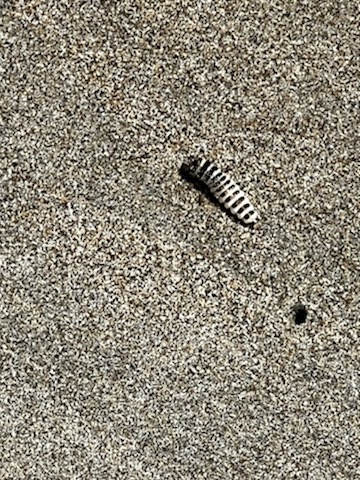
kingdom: Animalia
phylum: Arthropoda
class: Insecta
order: Coleoptera
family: Staphylinidae
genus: Thinopinus
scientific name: Thinopinus pictus
